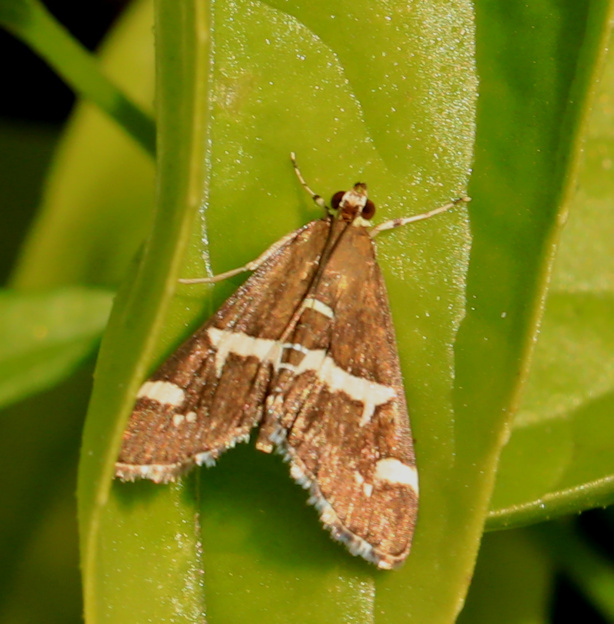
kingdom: Animalia
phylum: Arthropoda
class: Insecta
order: Lepidoptera
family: Crambidae
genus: Spoladea
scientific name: Spoladea recurvalis
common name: Beet webworm moth
